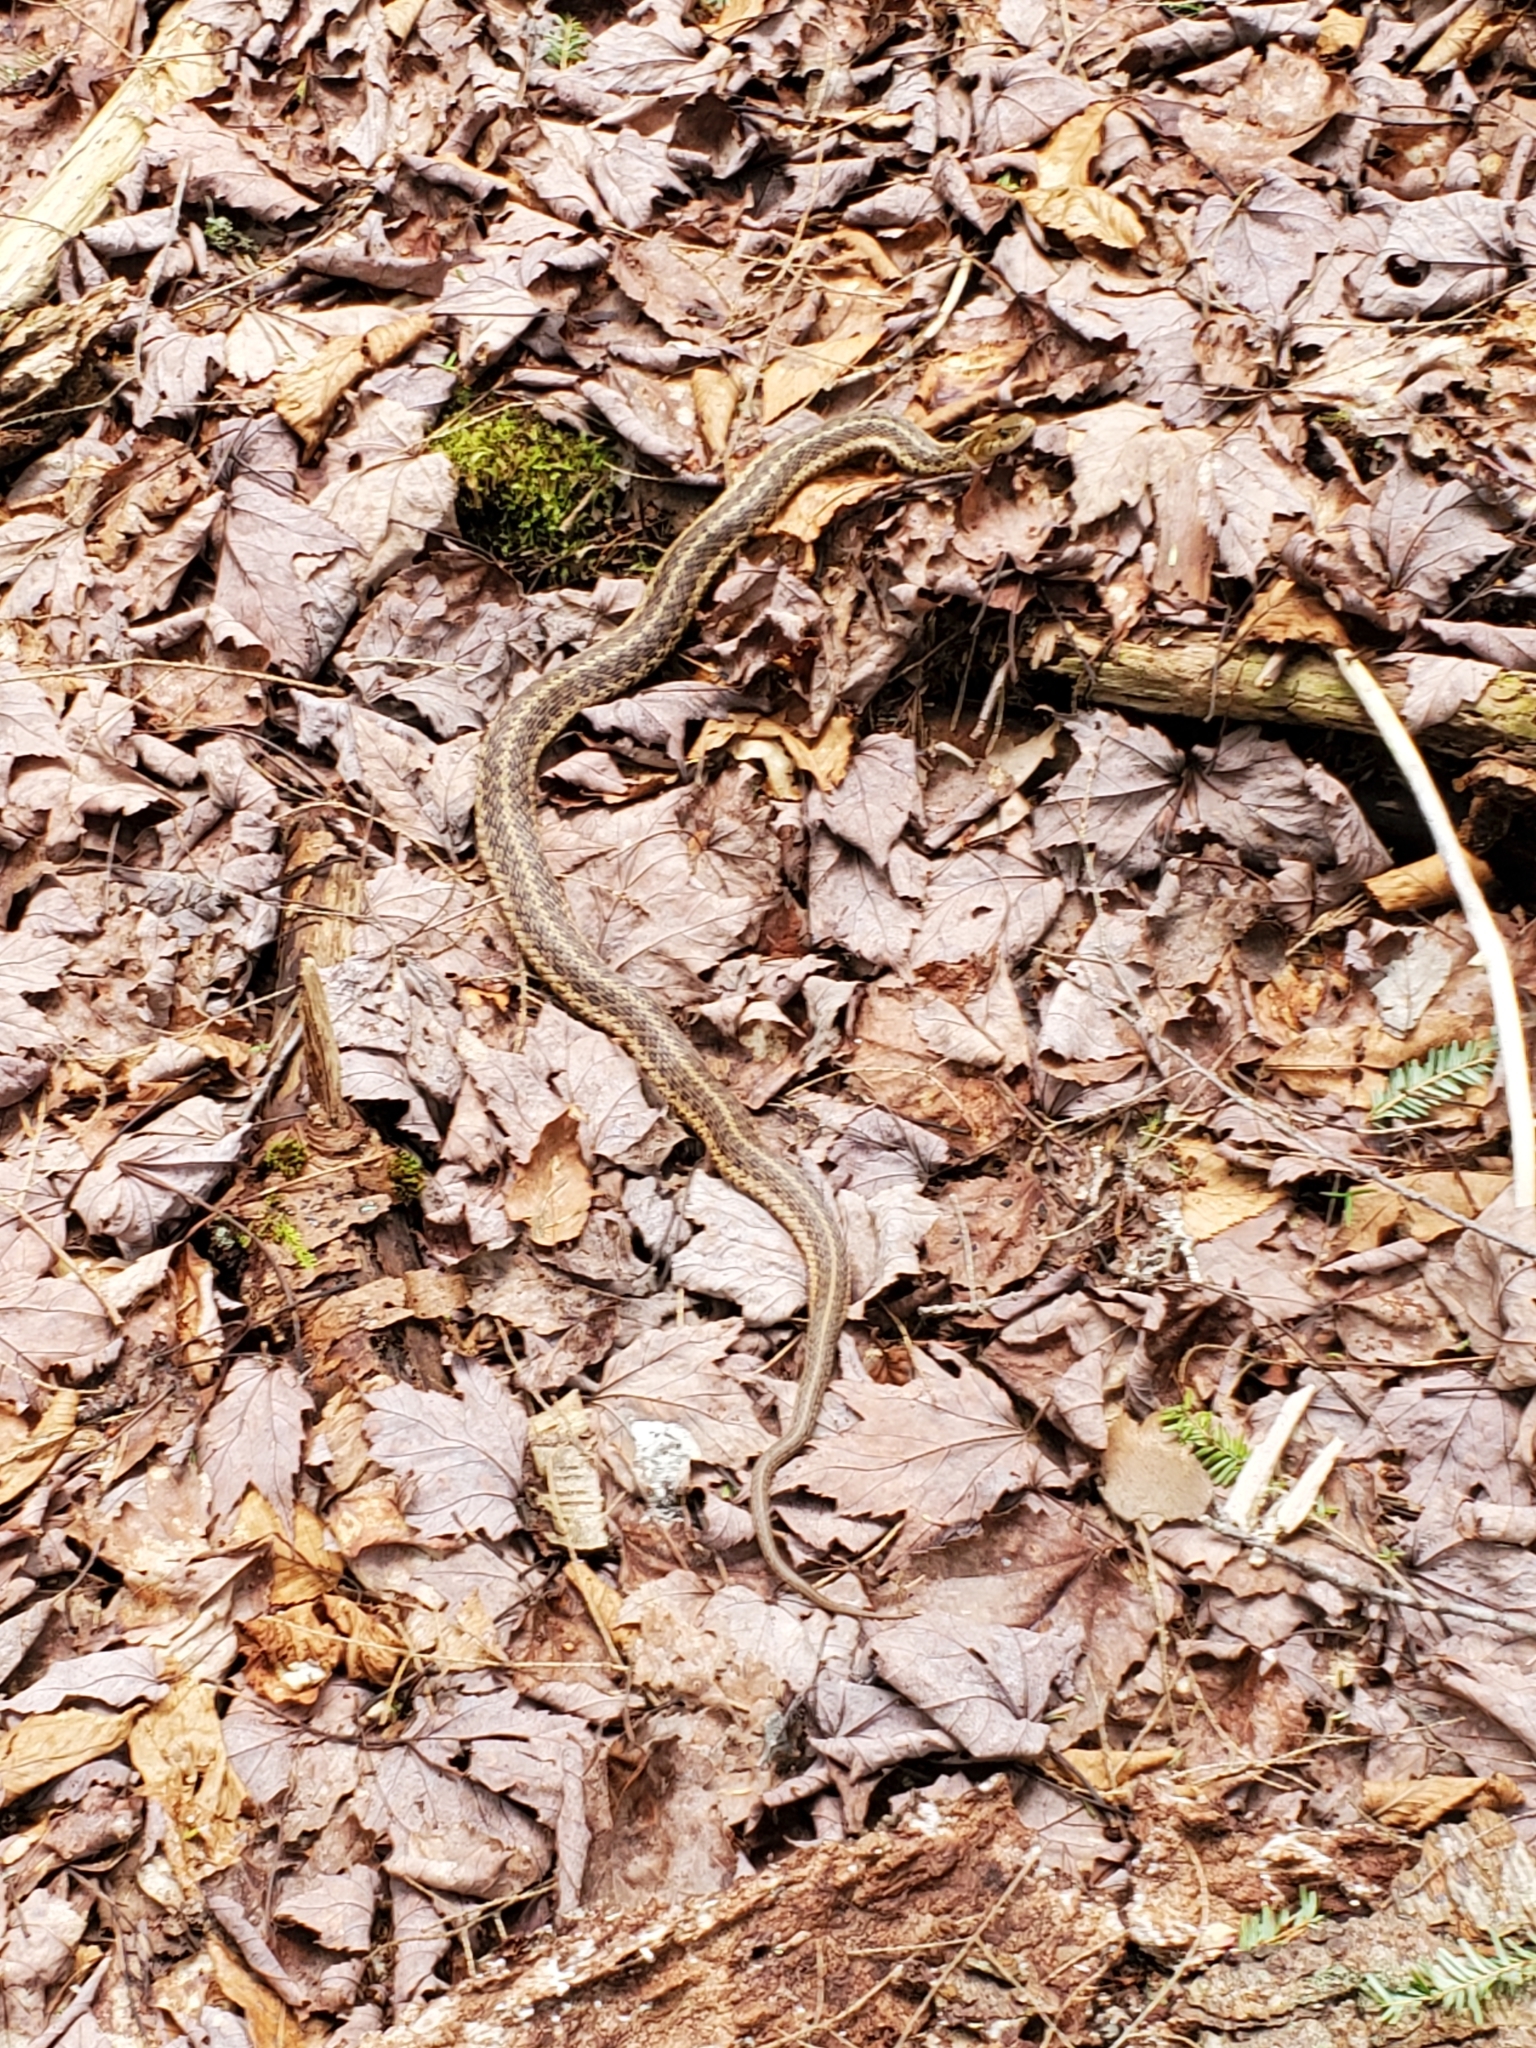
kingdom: Animalia
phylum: Chordata
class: Squamata
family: Colubridae
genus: Thamnophis
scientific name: Thamnophis sirtalis
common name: Common garter snake
